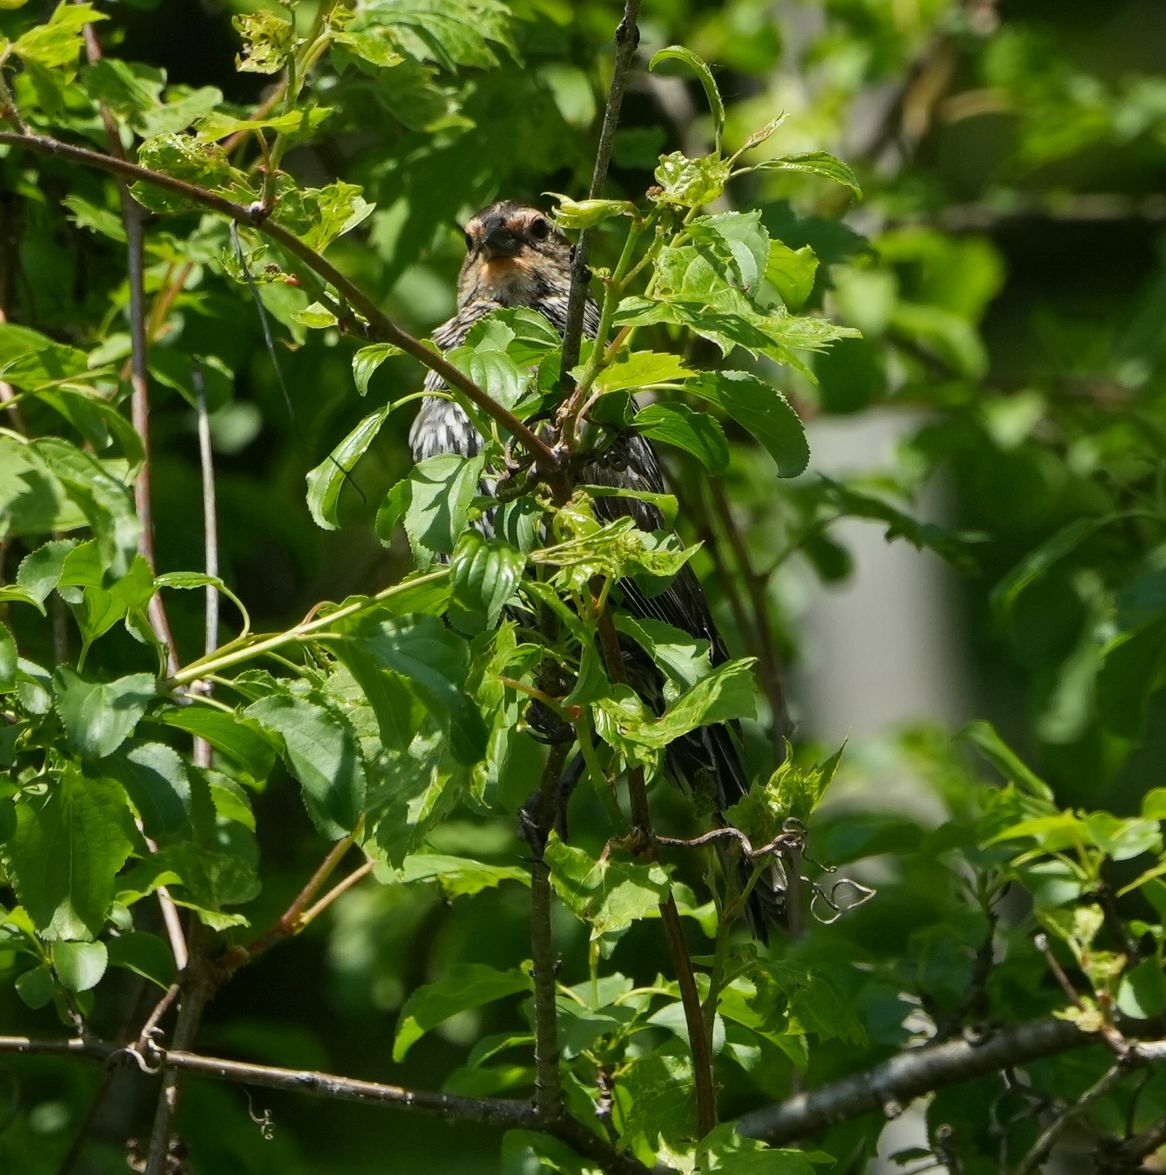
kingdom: Animalia
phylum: Chordata
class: Aves
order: Passeriformes
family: Icteridae
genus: Agelaius
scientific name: Agelaius phoeniceus
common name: Red-winged blackbird
